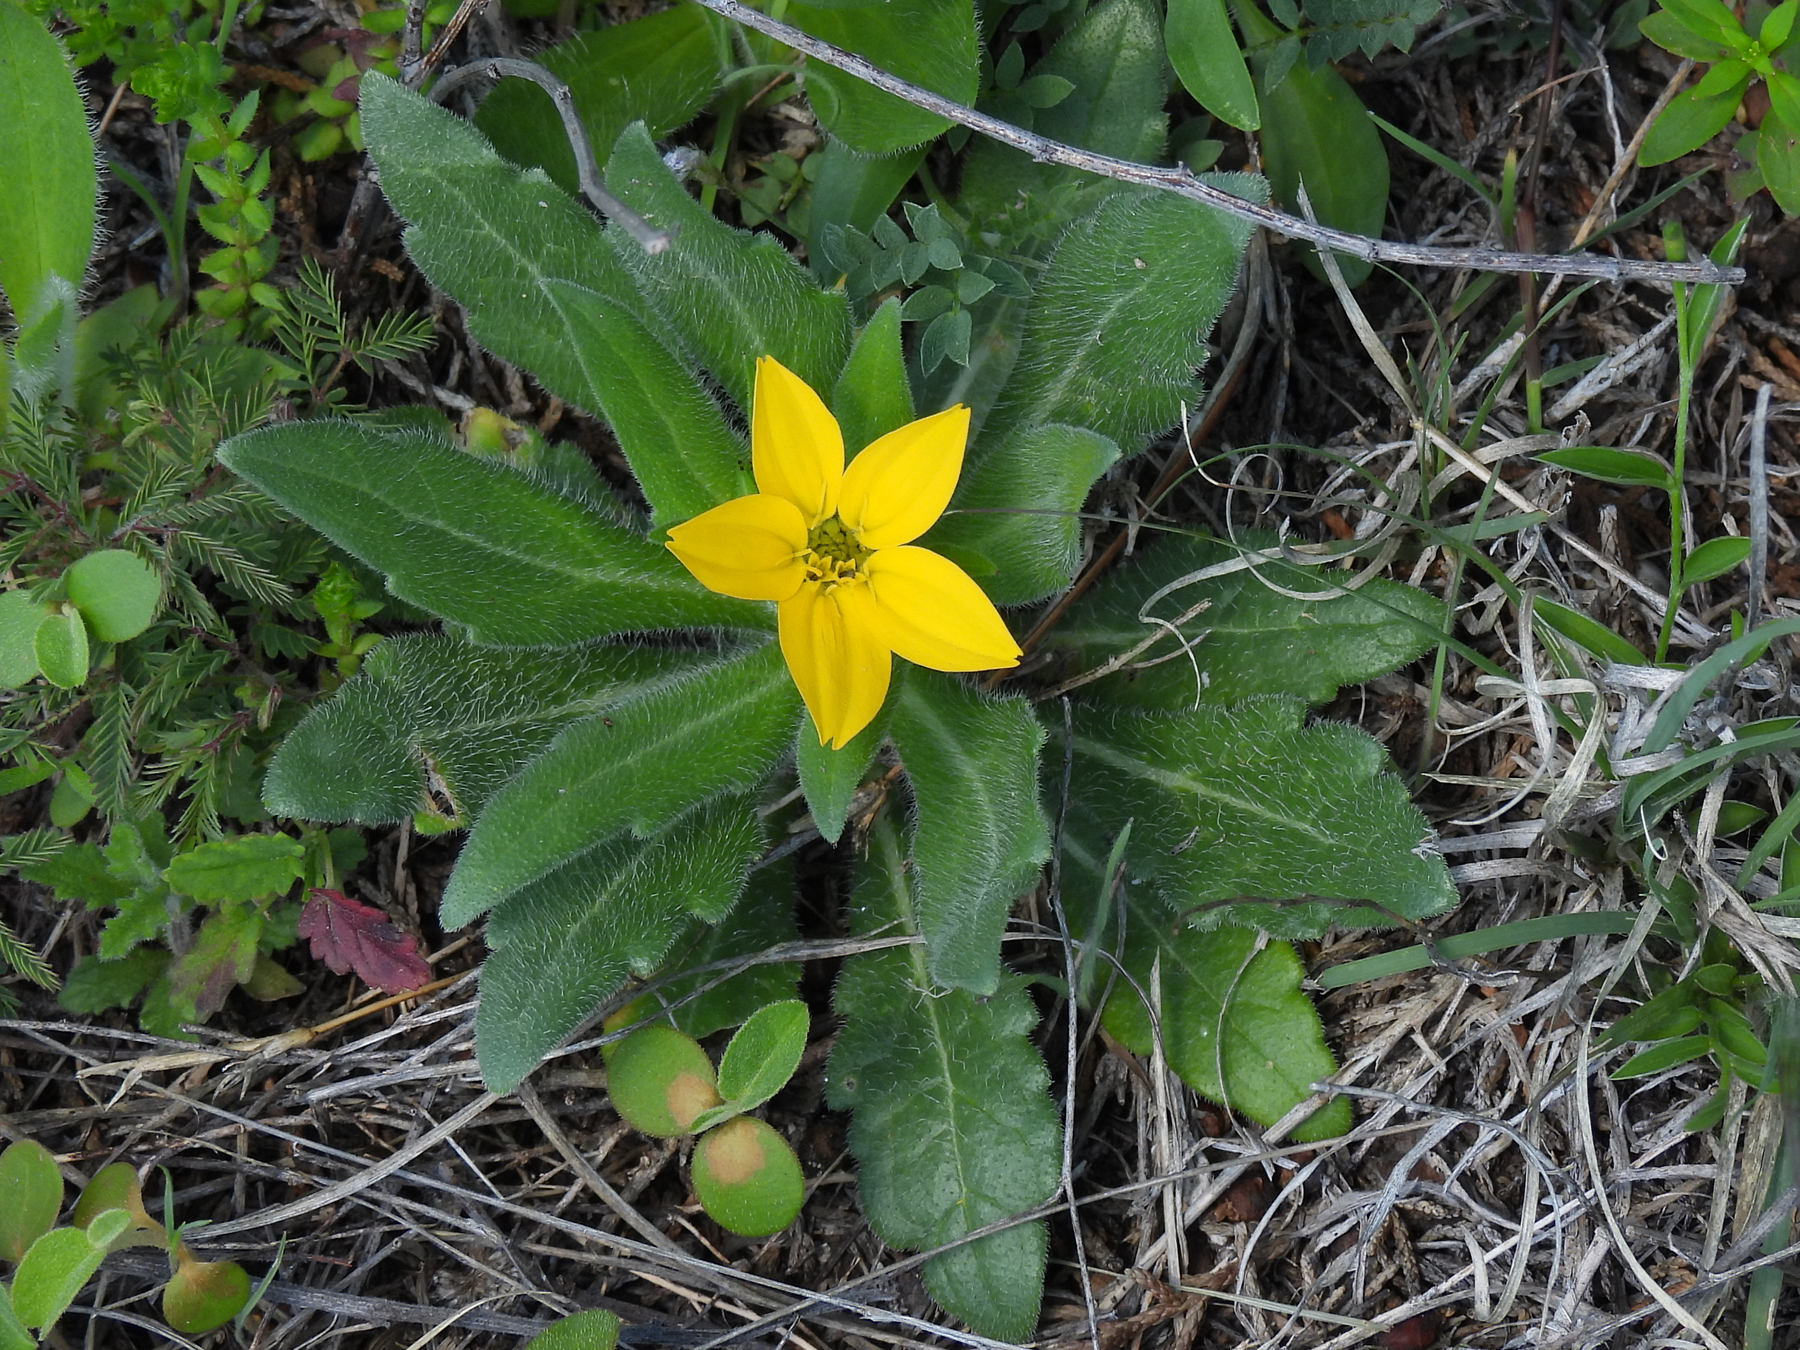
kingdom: Plantae
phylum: Tracheophyta
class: Magnoliopsida
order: Asterales
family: Asteraceae
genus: Lindheimera
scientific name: Lindheimera texana
